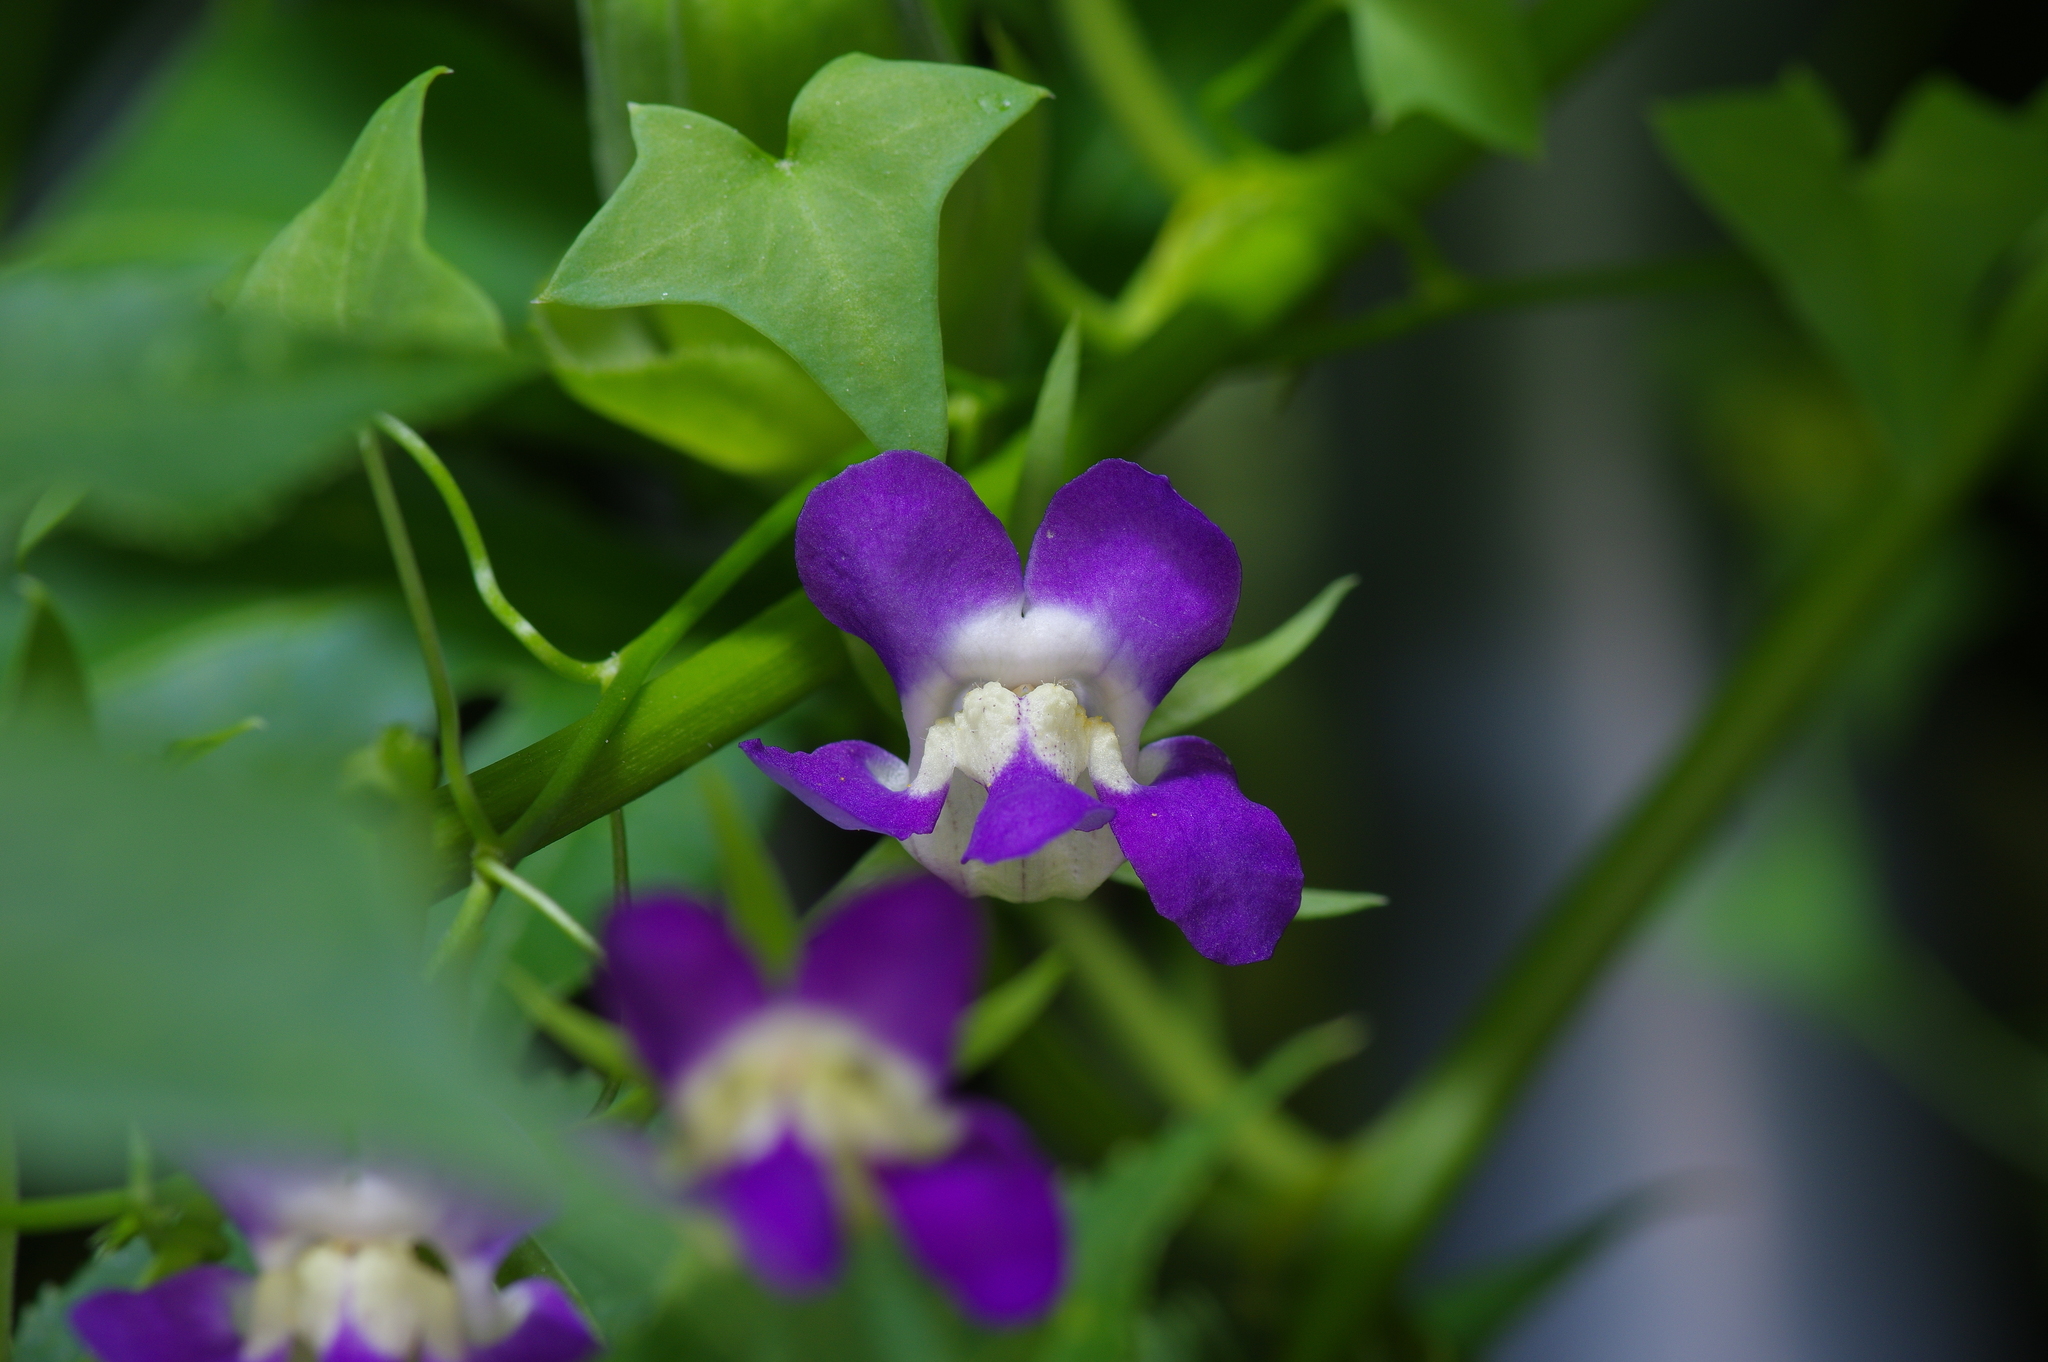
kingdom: Plantae
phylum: Tracheophyta
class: Magnoliopsida
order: Lamiales
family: Plantaginaceae
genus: Maurandella
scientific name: Maurandella antirrhiniflora
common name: Violet twining-snapdragon
